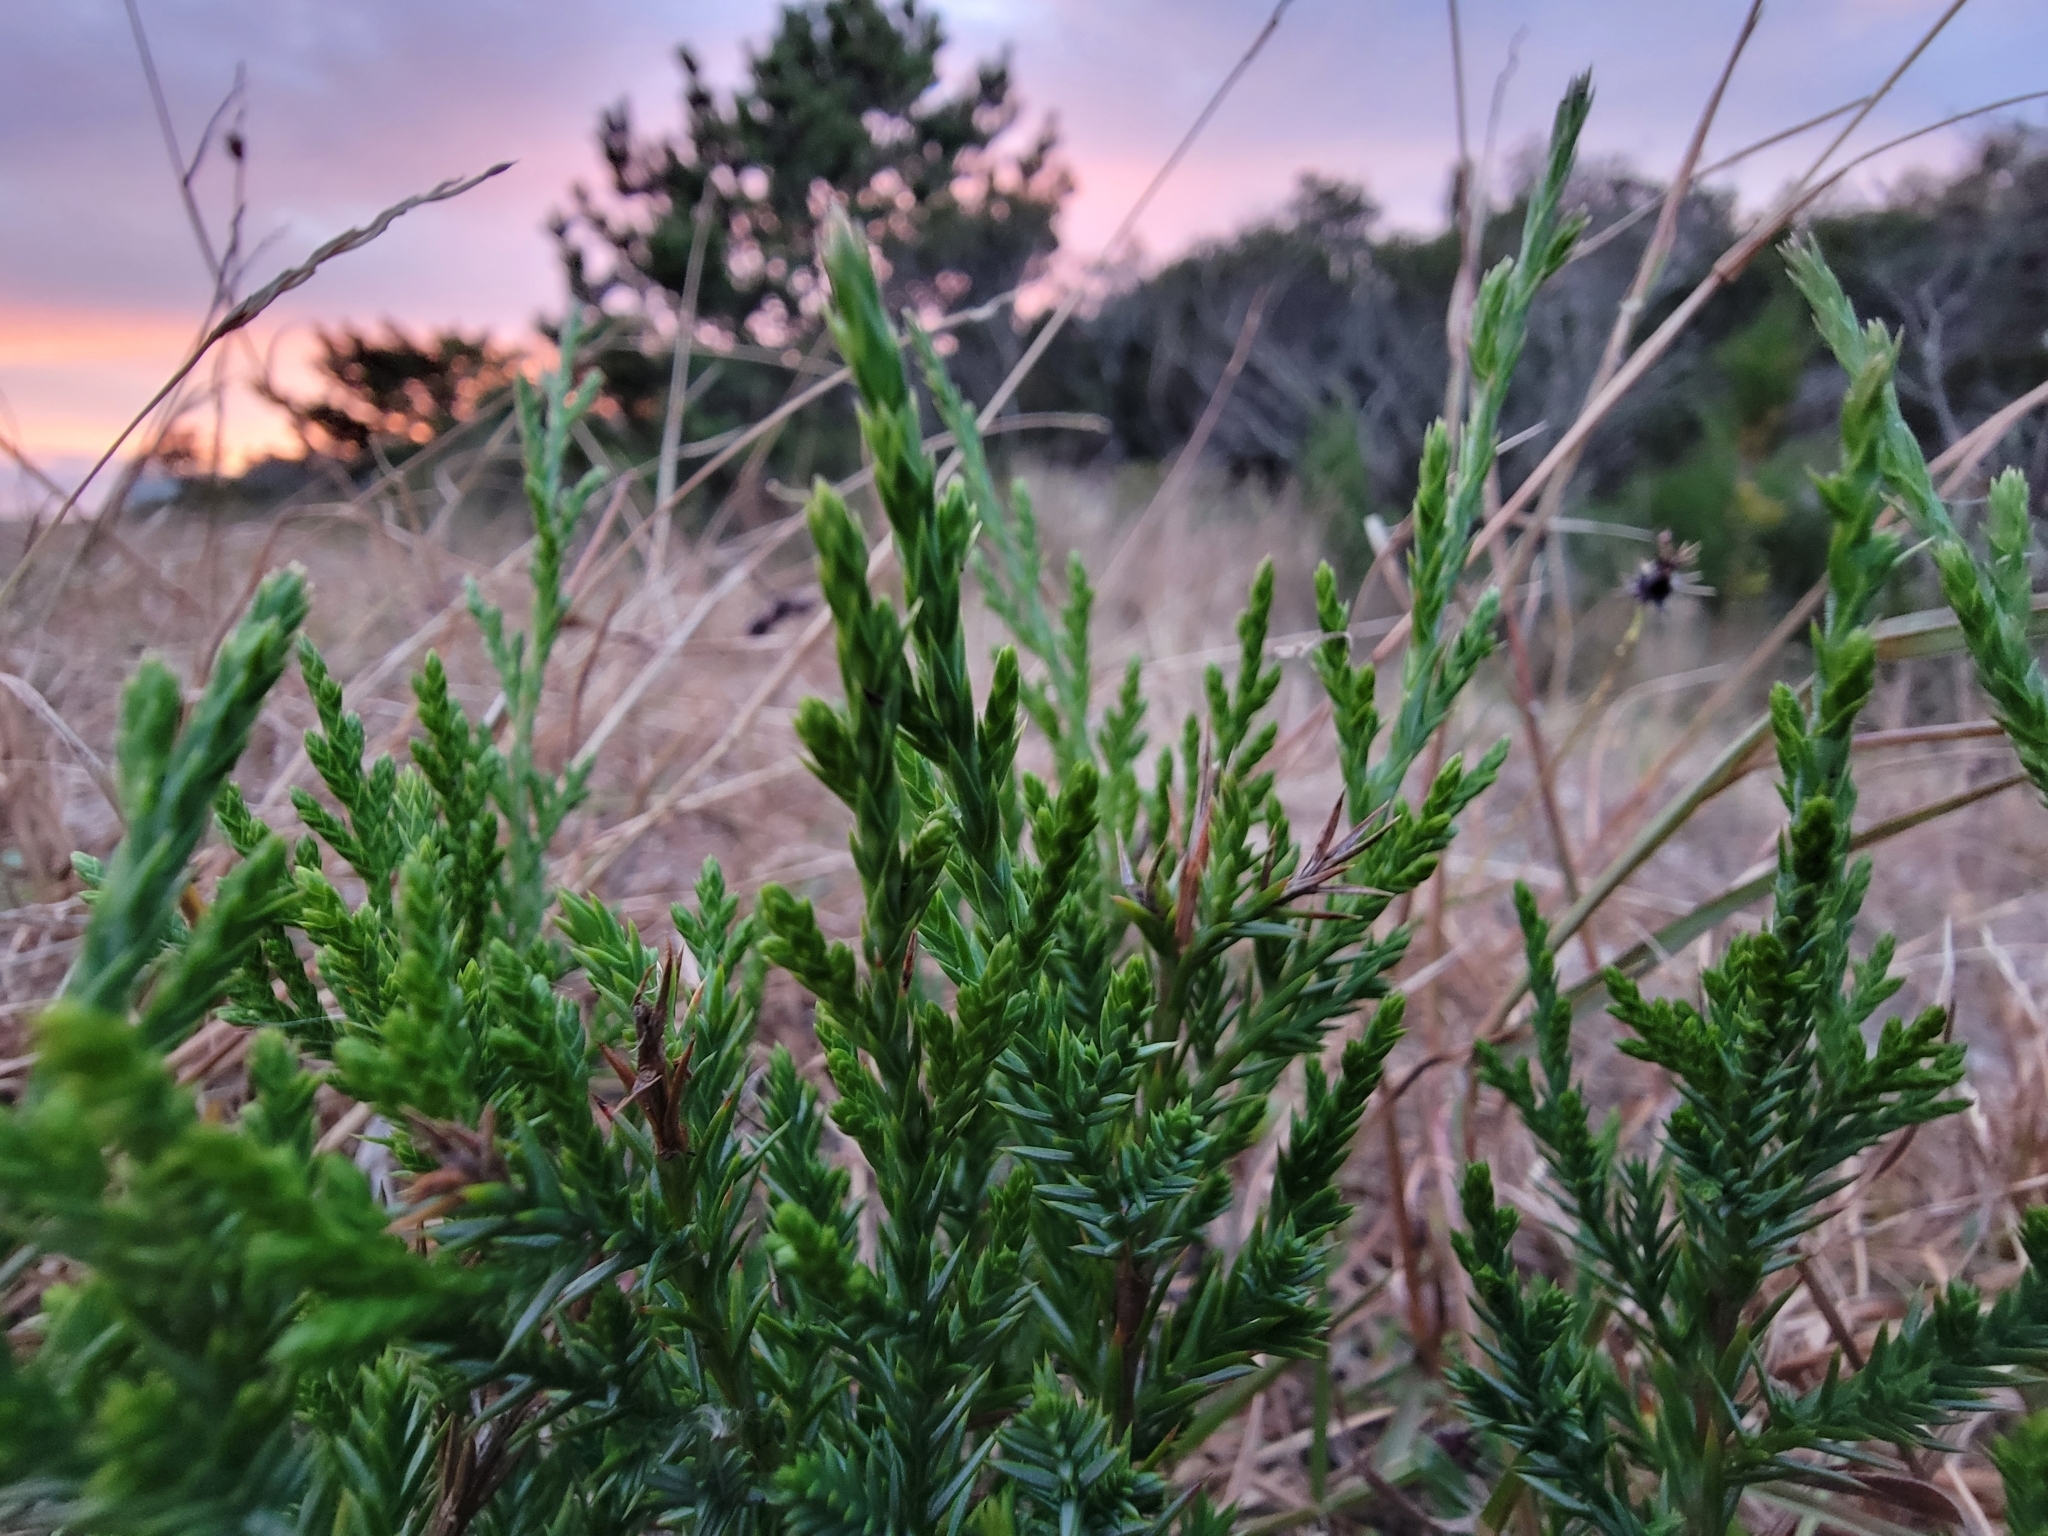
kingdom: Plantae
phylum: Tracheophyta
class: Pinopsida
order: Pinales
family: Cupressaceae
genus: Juniperus
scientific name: Juniperus virginiana
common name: Red juniper
